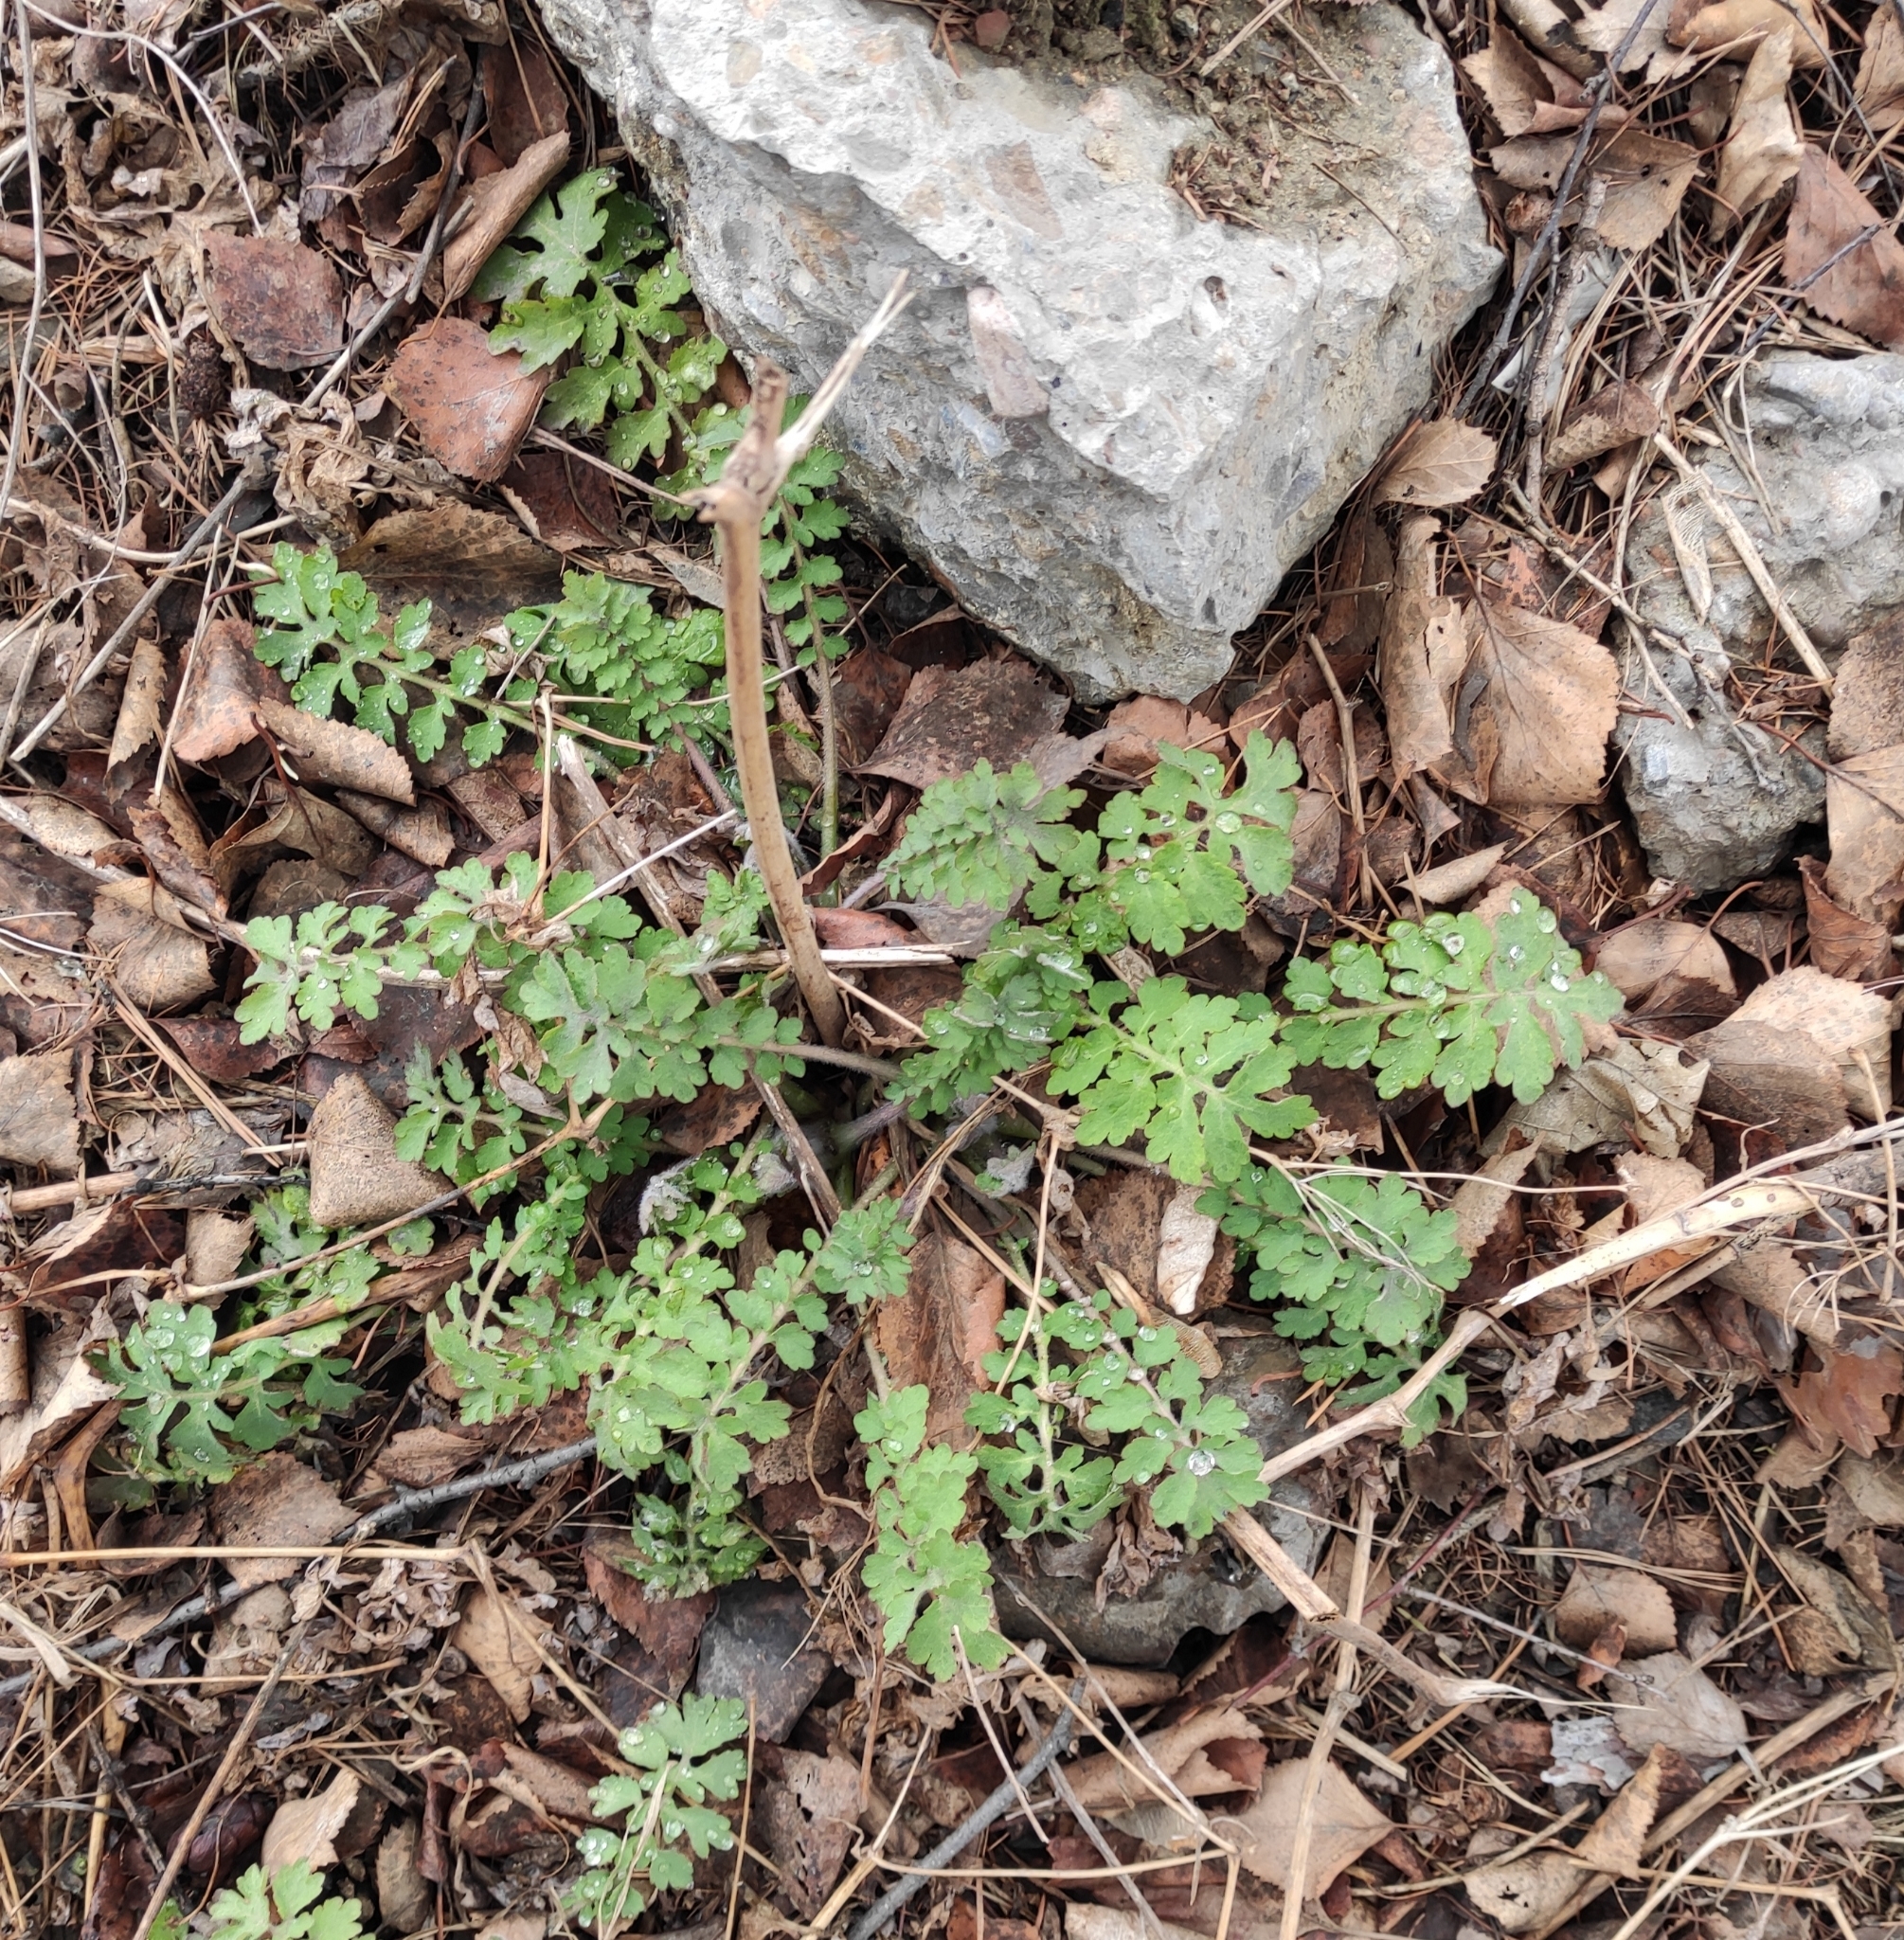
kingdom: Plantae
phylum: Tracheophyta
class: Magnoliopsida
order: Ranunculales
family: Papaveraceae
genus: Chelidonium
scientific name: Chelidonium majus
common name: Greater celandine
